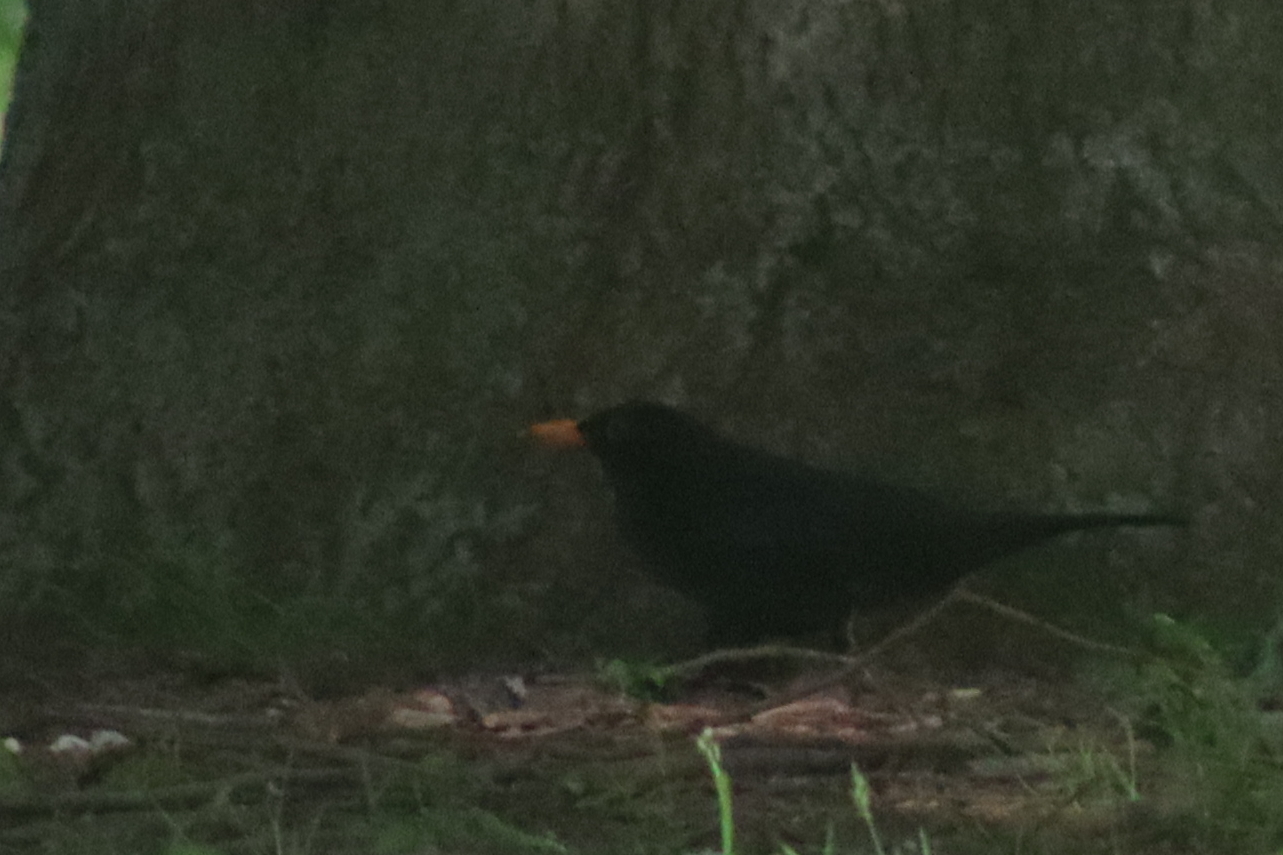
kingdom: Animalia
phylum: Chordata
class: Aves
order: Passeriformes
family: Turdidae
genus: Turdus
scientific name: Turdus merula
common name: Common blackbird
